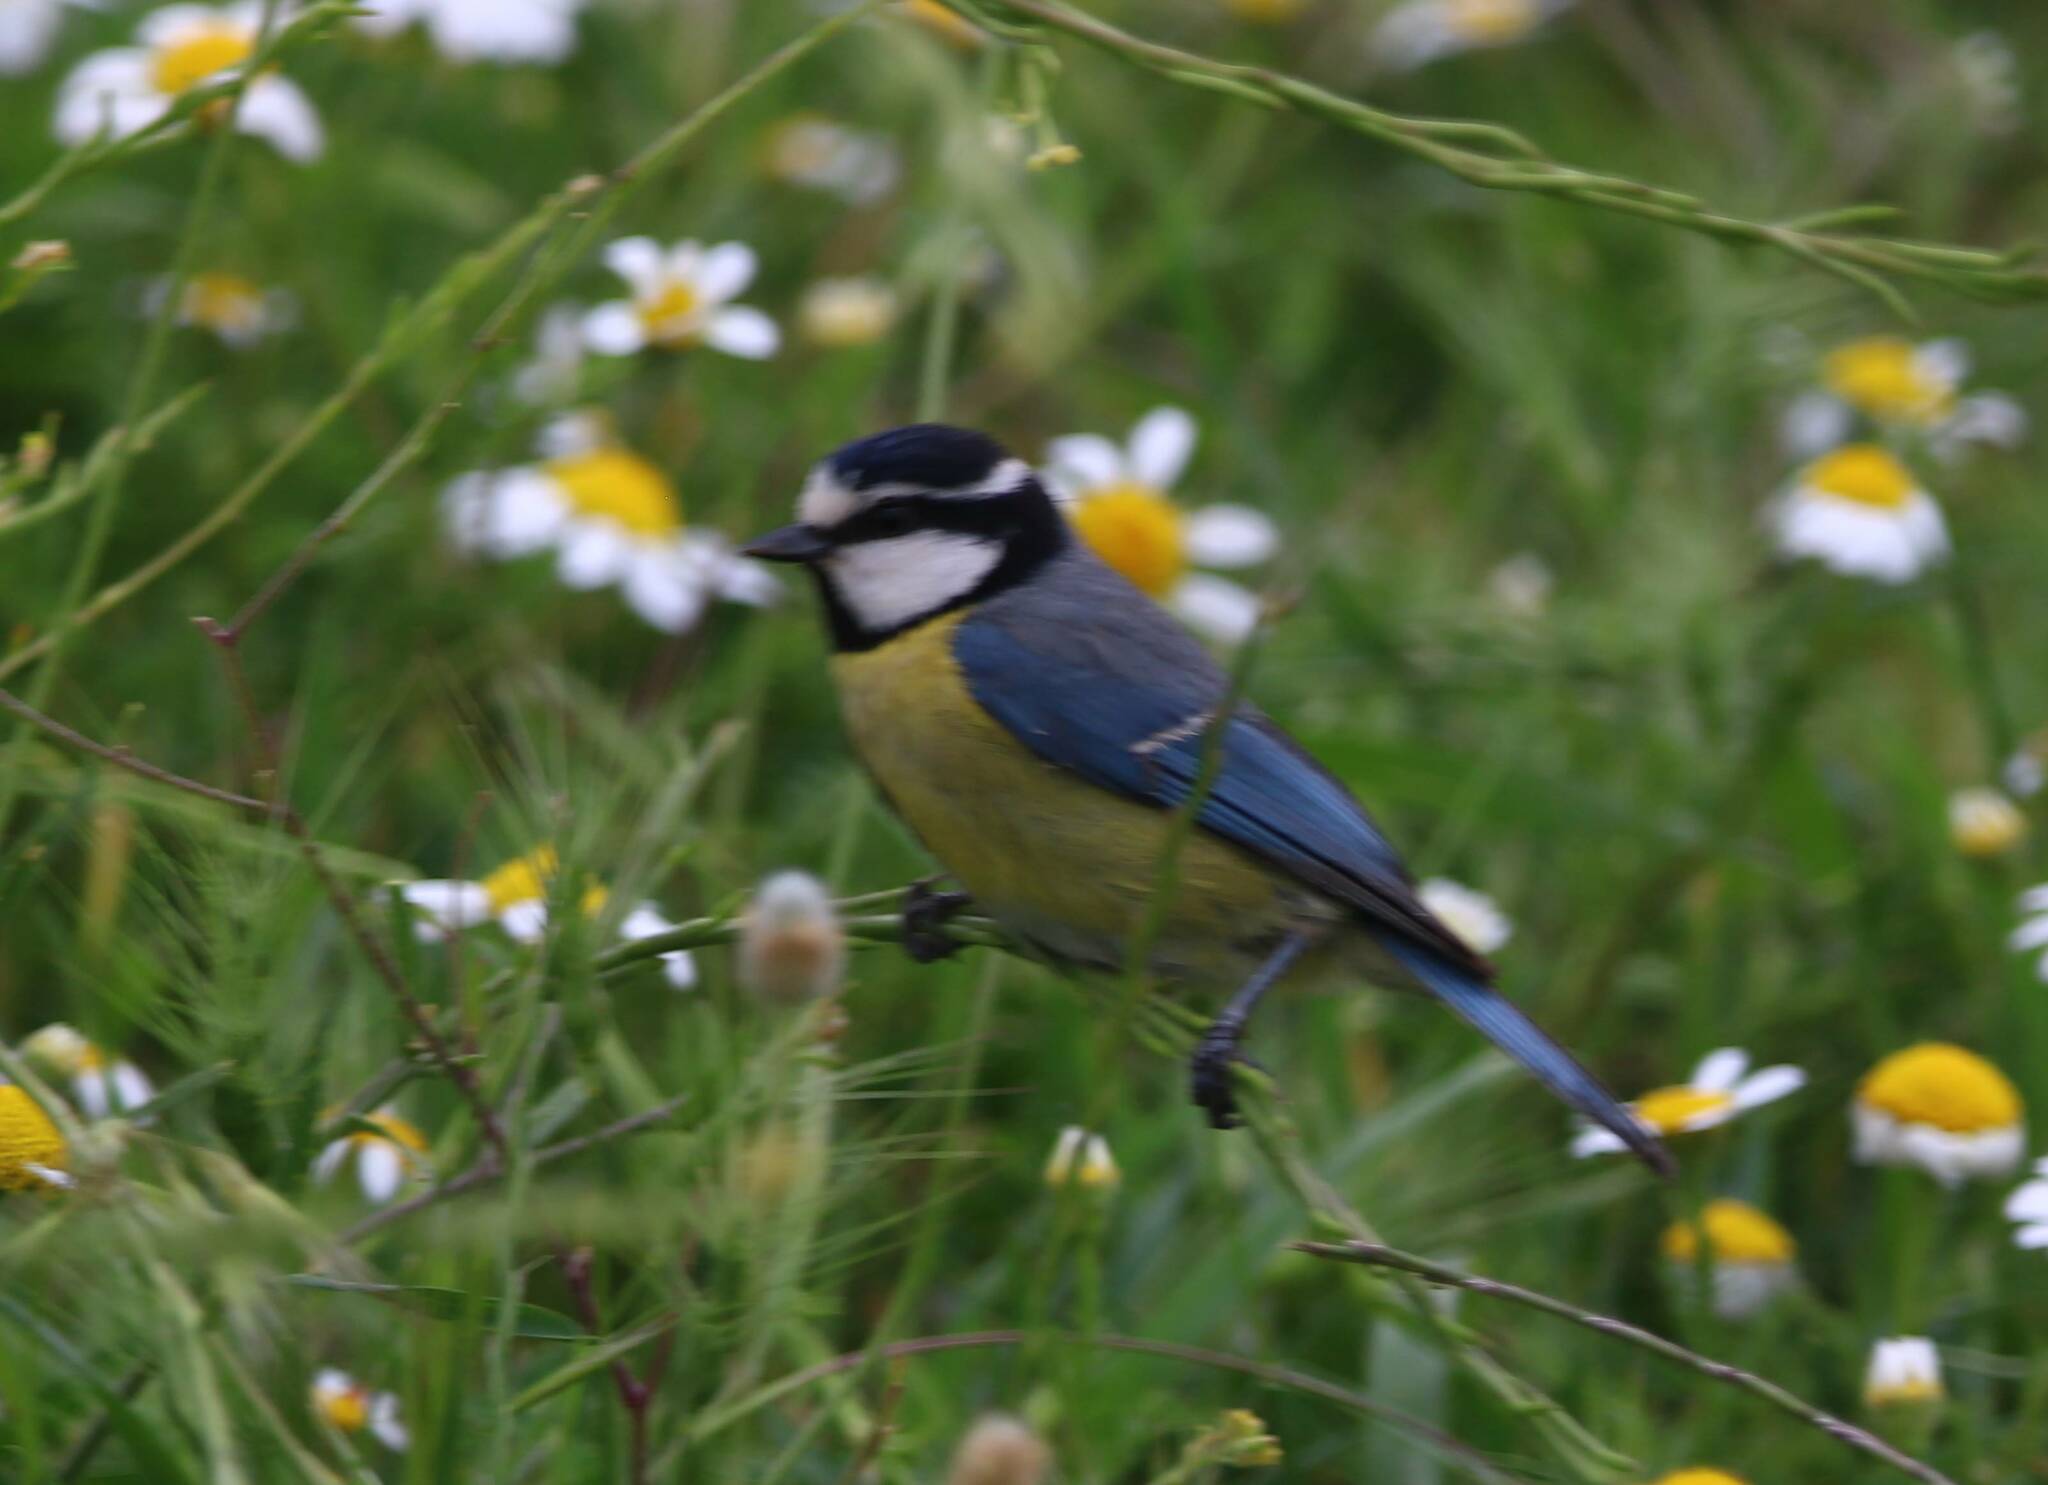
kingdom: Animalia
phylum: Chordata
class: Aves
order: Passeriformes
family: Paridae
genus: Cyanistes
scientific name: Cyanistes teneriffae
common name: African blue tit
